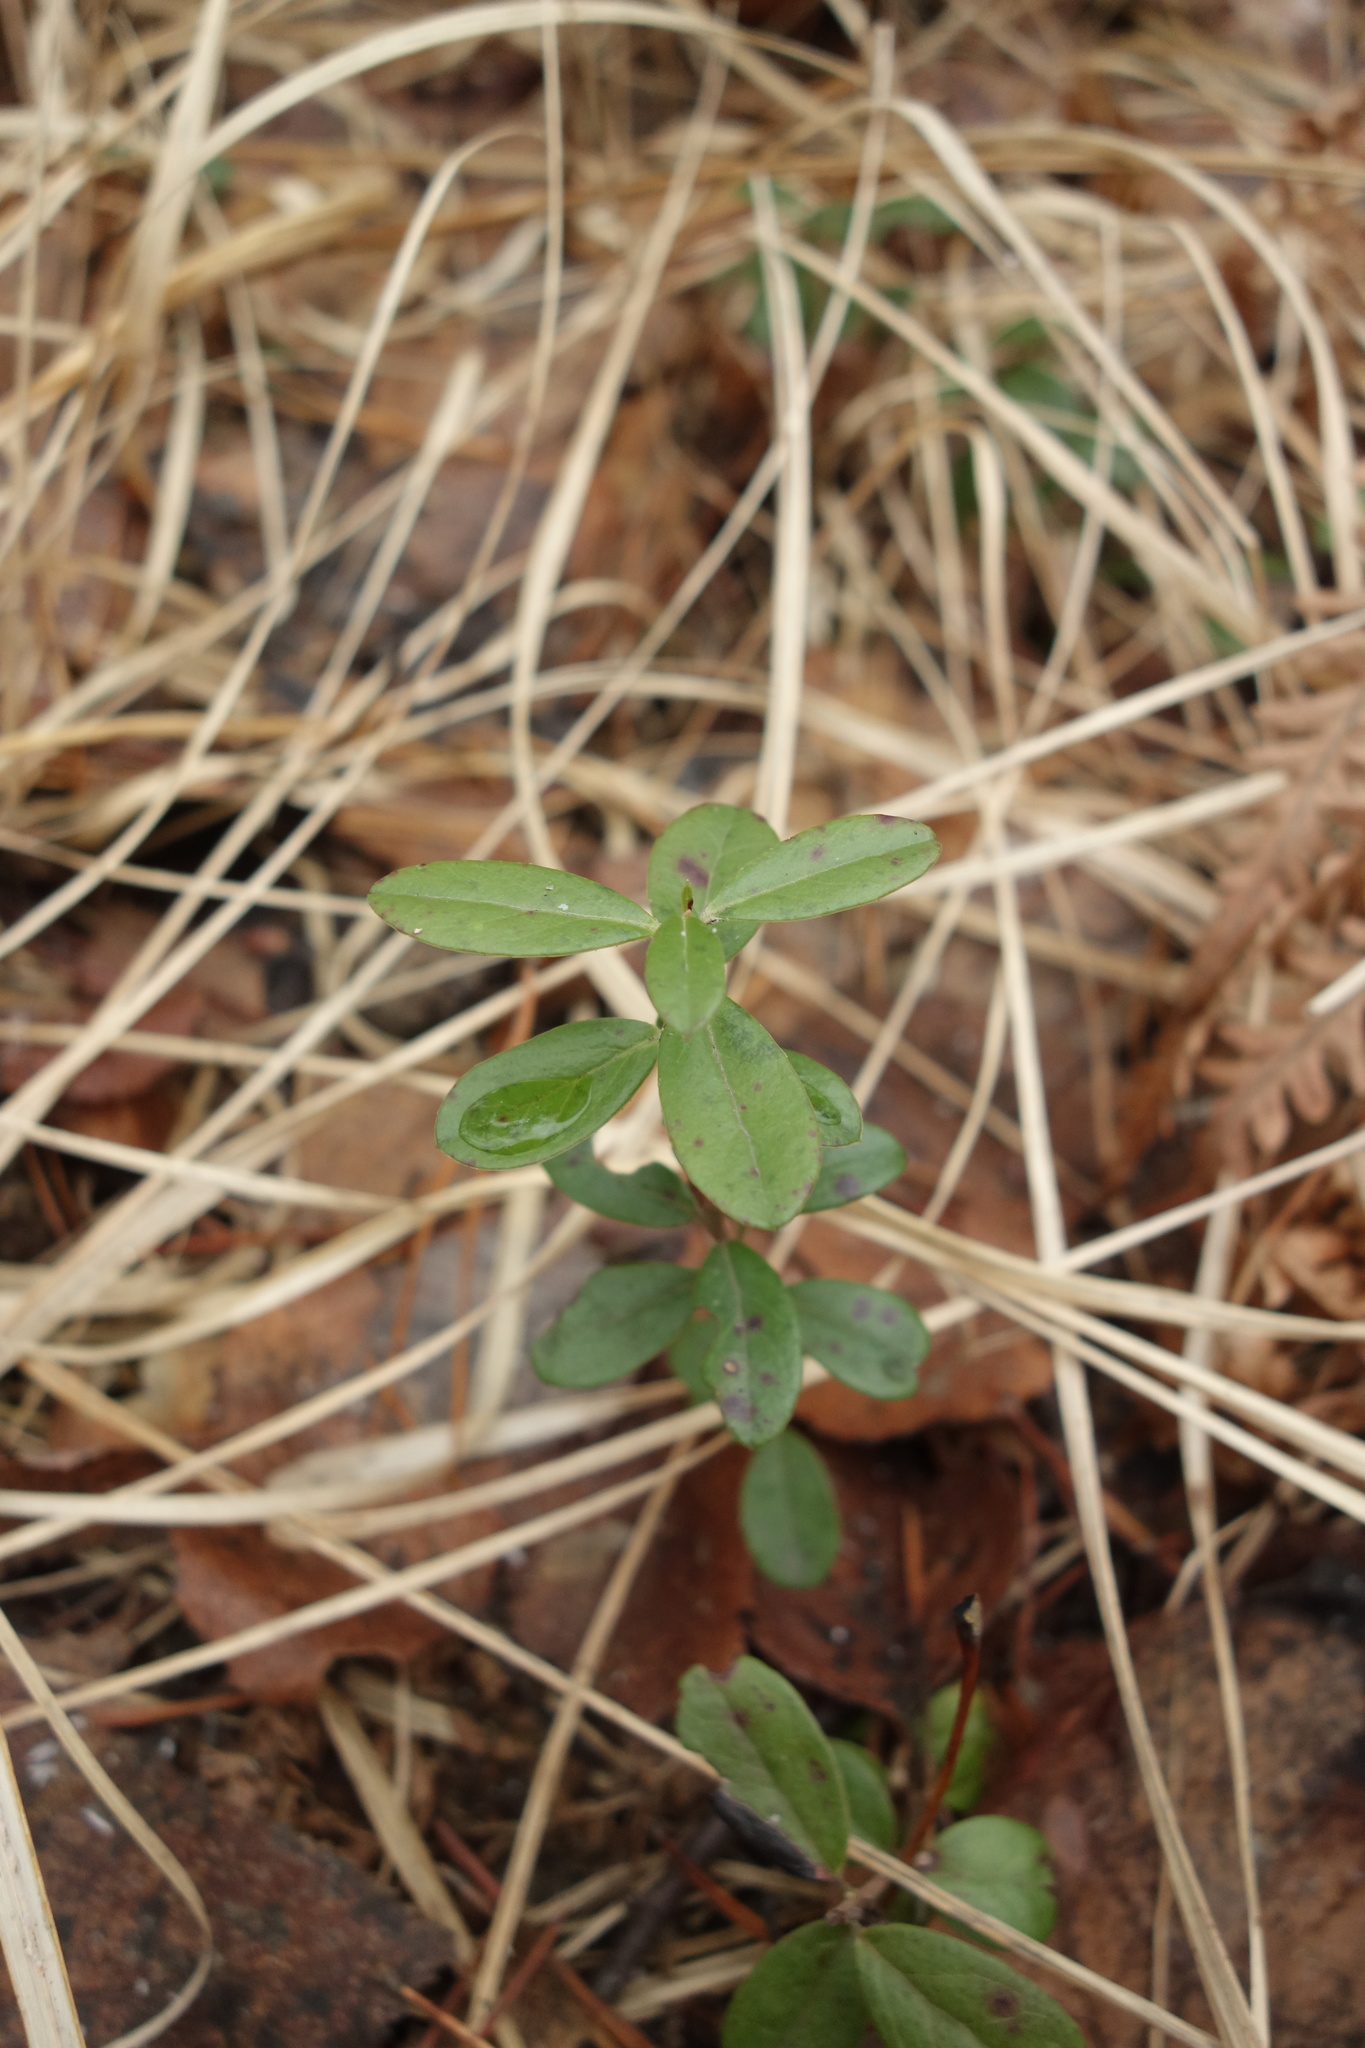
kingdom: Plantae
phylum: Tracheophyta
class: Magnoliopsida
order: Ericales
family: Ericaceae
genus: Vaccinium
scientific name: Vaccinium vitis-idaea
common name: Cowberry
